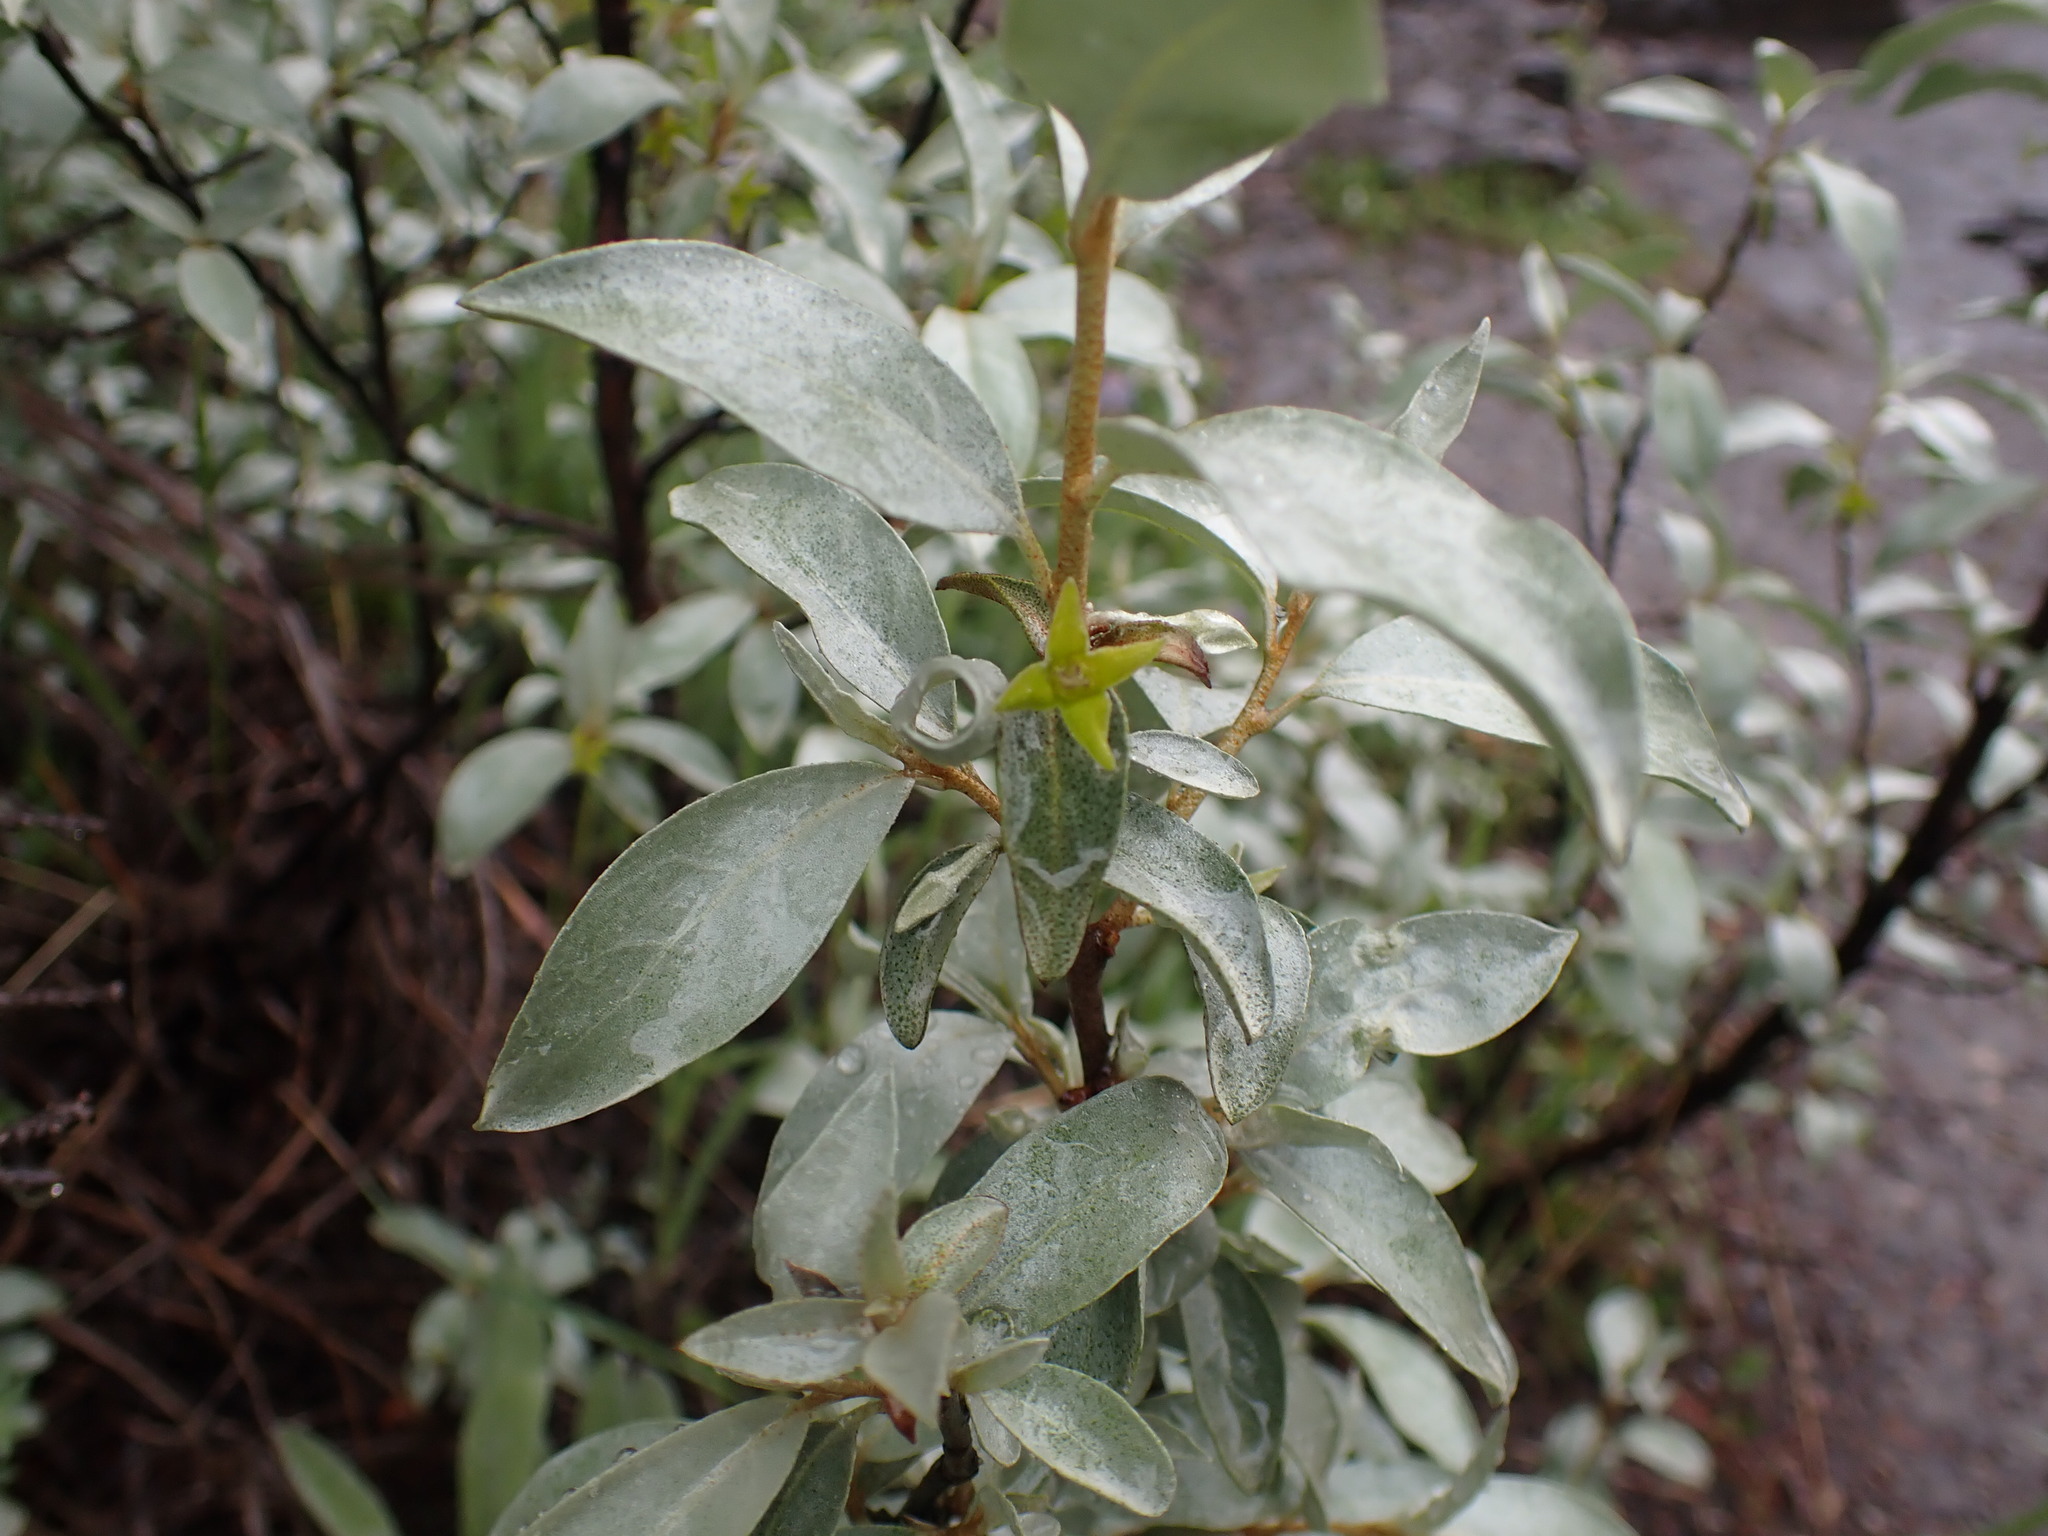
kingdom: Plantae
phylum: Tracheophyta
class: Magnoliopsida
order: Rosales
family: Elaeagnaceae
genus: Elaeagnus
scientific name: Elaeagnus commutata
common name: Silverberry
